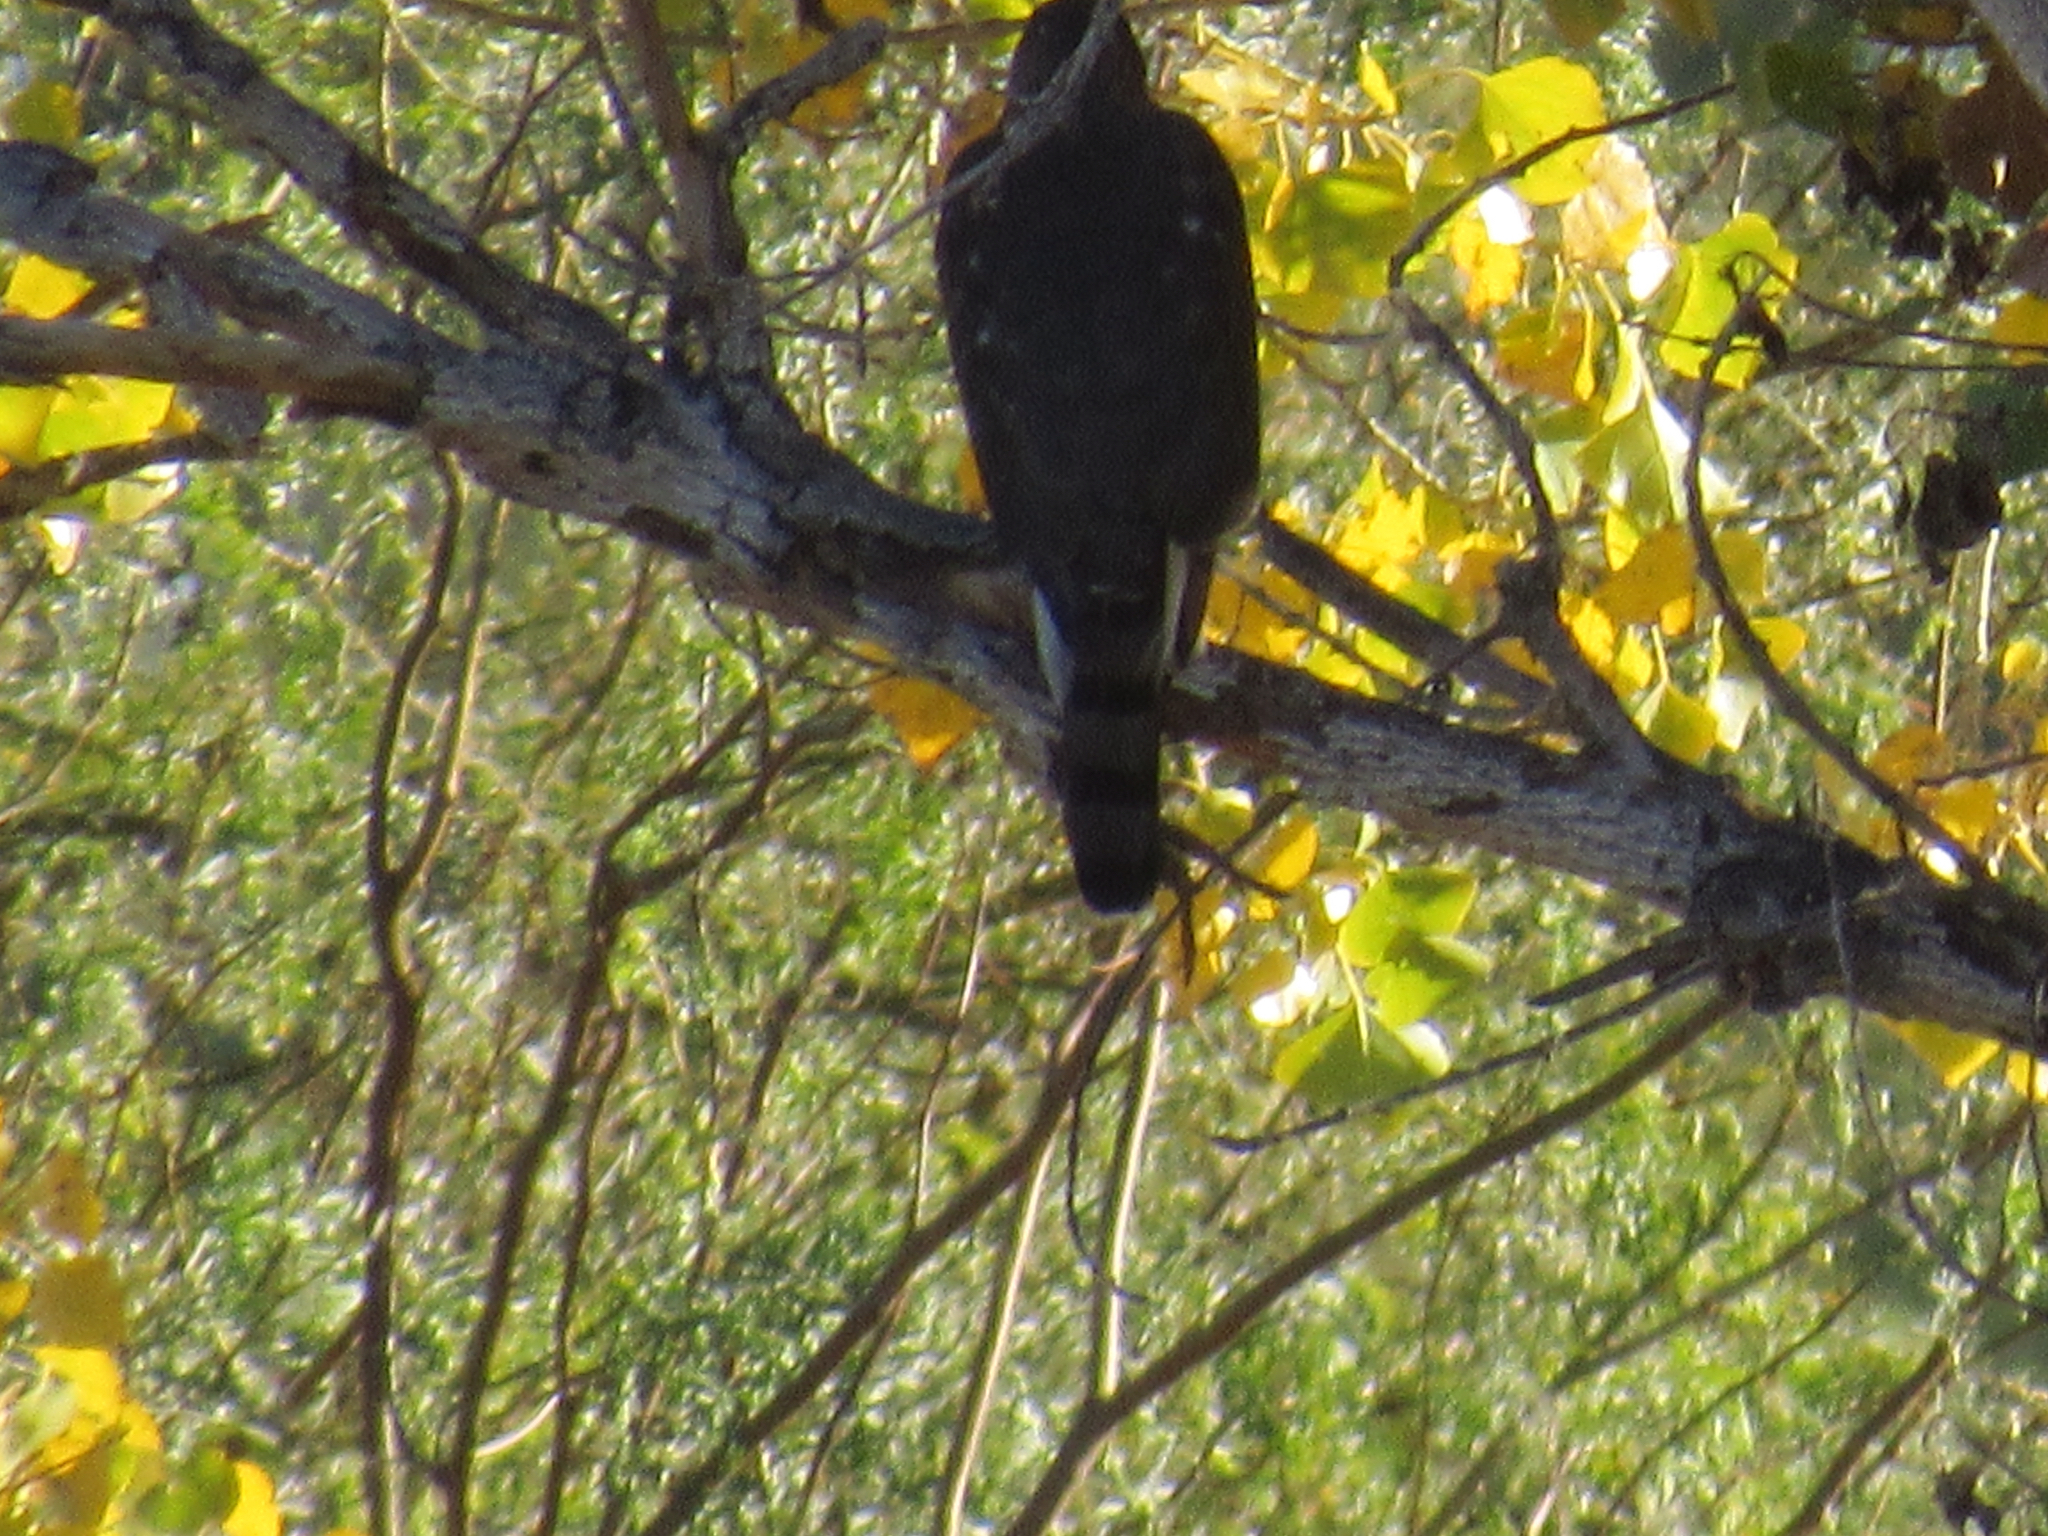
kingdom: Animalia
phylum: Chordata
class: Aves
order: Accipitriformes
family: Accipitridae
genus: Accipiter
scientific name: Accipiter cooperii
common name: Cooper's hawk
